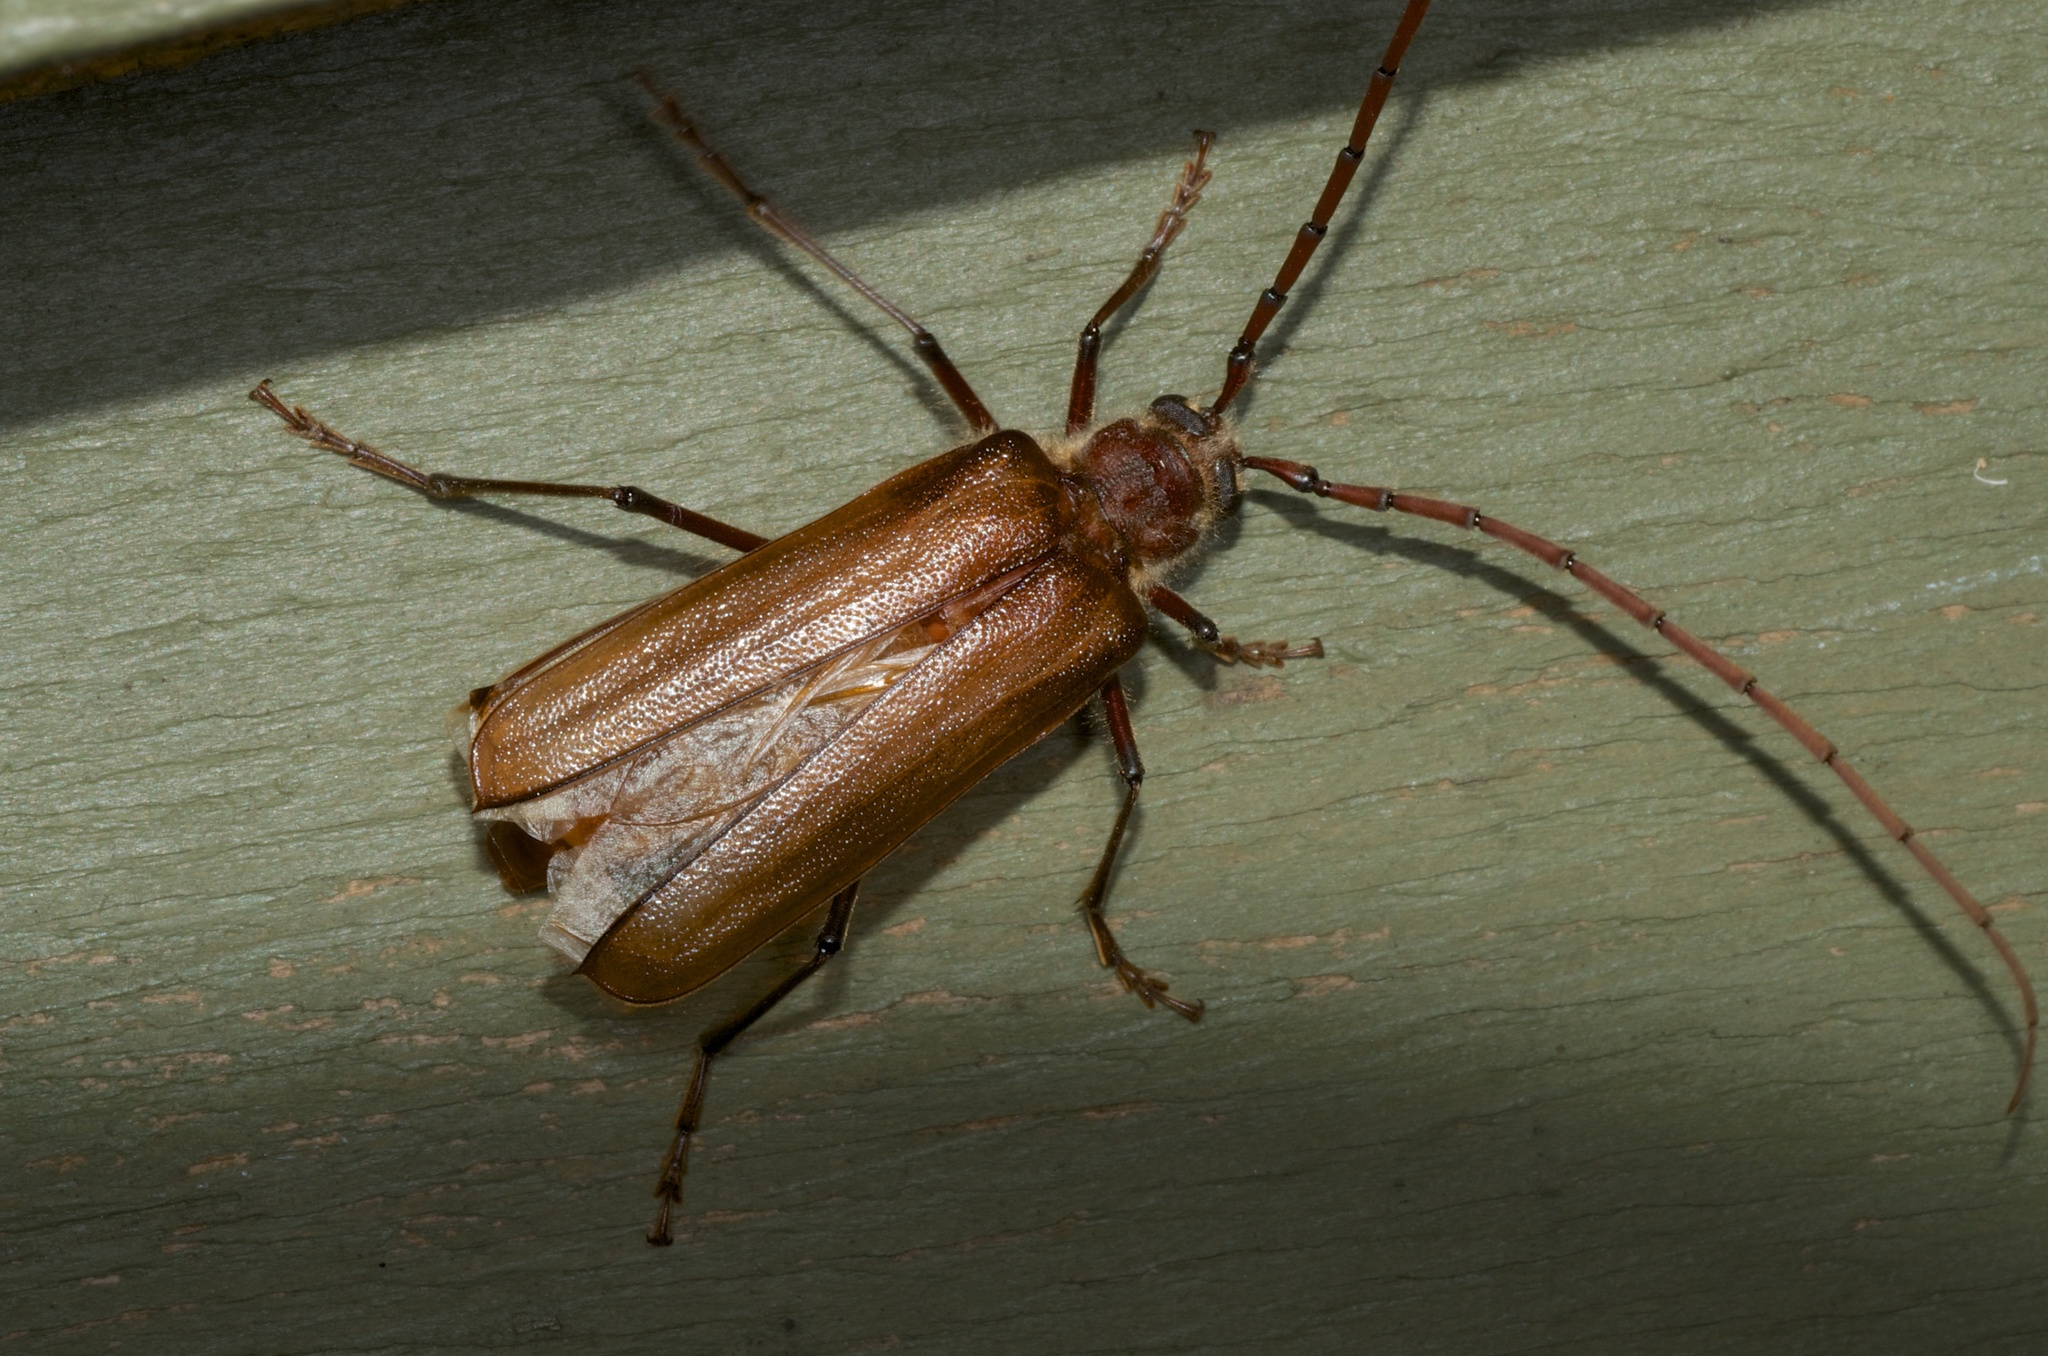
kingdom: Animalia
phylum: Arthropoda
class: Insecta
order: Coleoptera
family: Cerambycidae
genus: Ochrocydus
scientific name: Ochrocydus huttoni
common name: Kanuka longhorn
